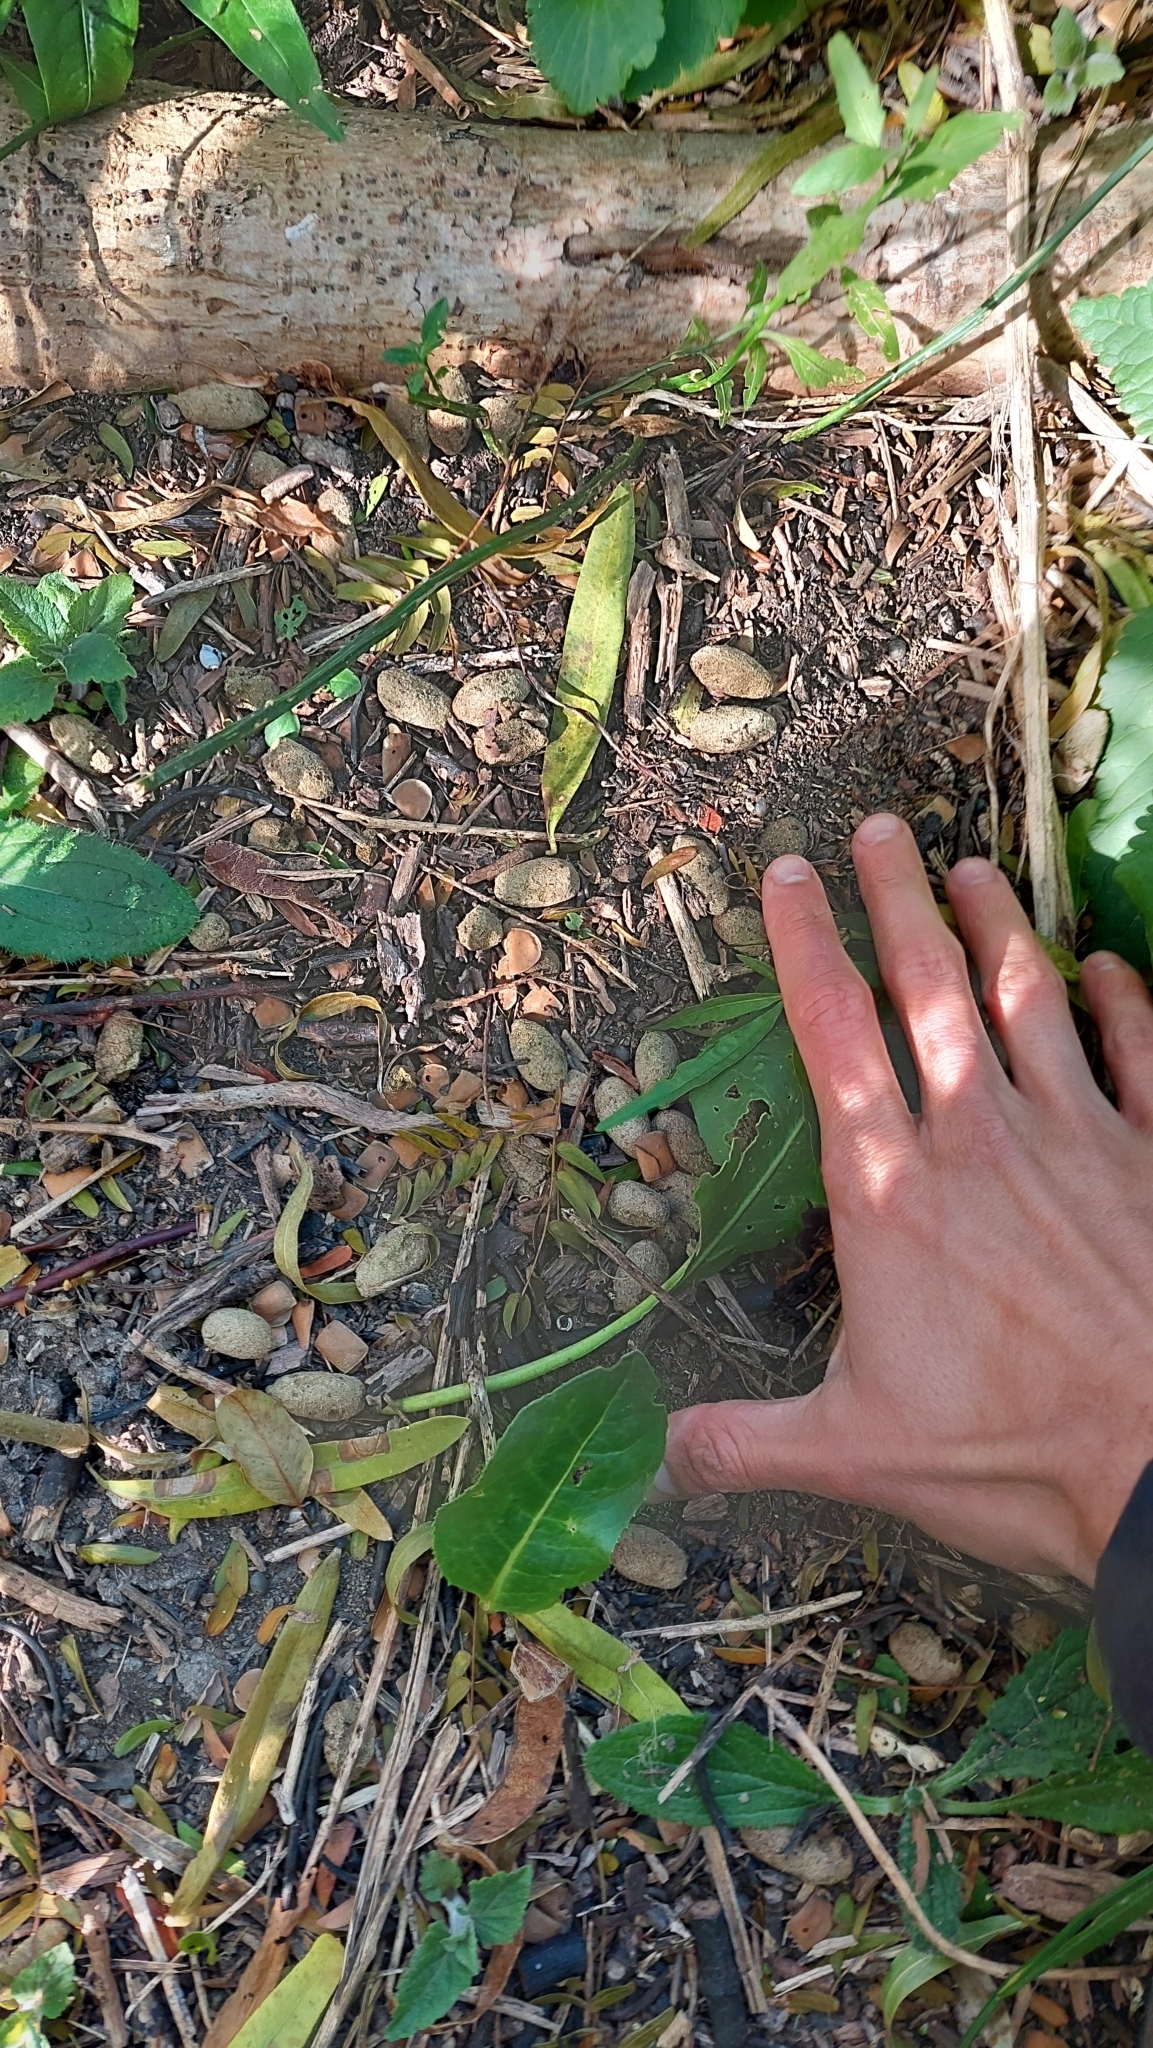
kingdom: Animalia
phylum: Chordata
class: Mammalia
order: Rodentia
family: Caviidae
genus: Hydrochoerus
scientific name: Hydrochoerus hydrochaeris
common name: Capybara
